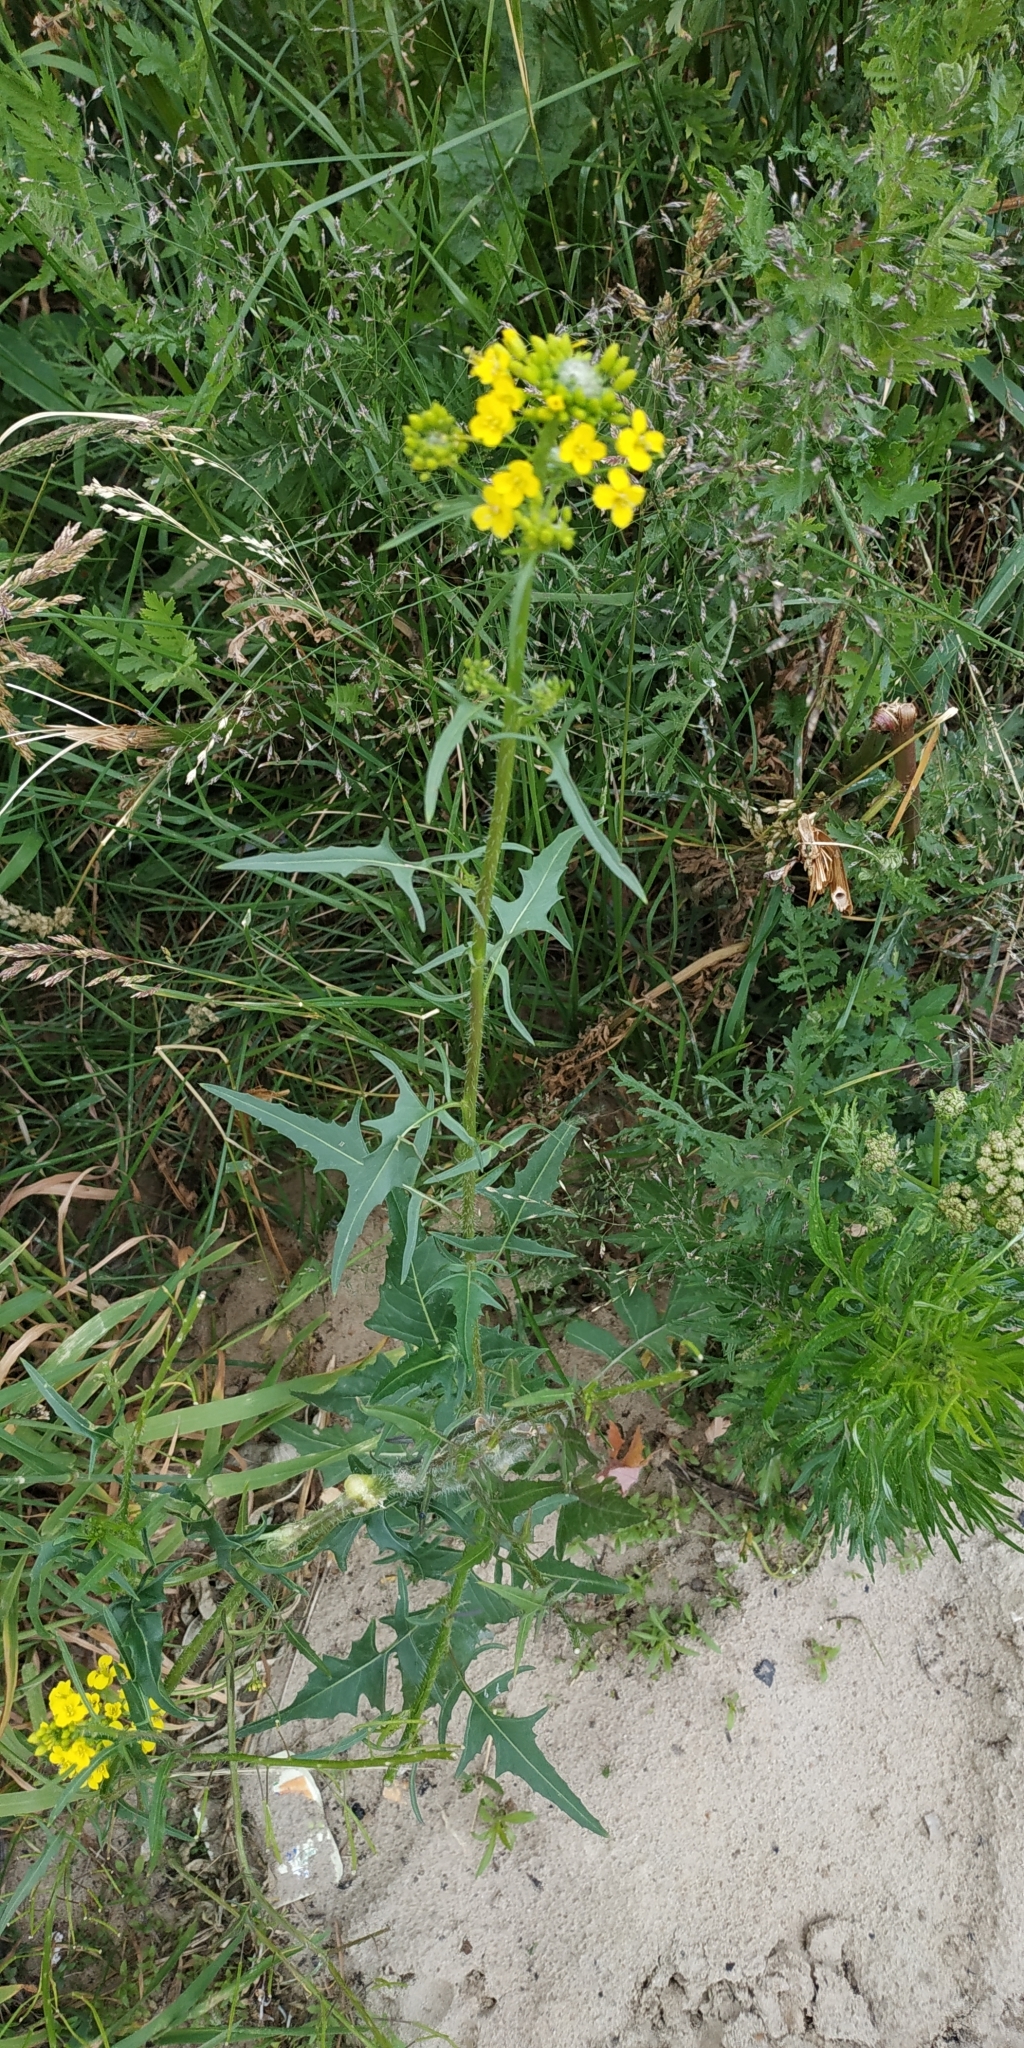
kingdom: Plantae
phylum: Tracheophyta
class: Magnoliopsida
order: Brassicales
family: Brassicaceae
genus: Sisymbrium
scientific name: Sisymbrium loeselii
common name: False london-rocket
